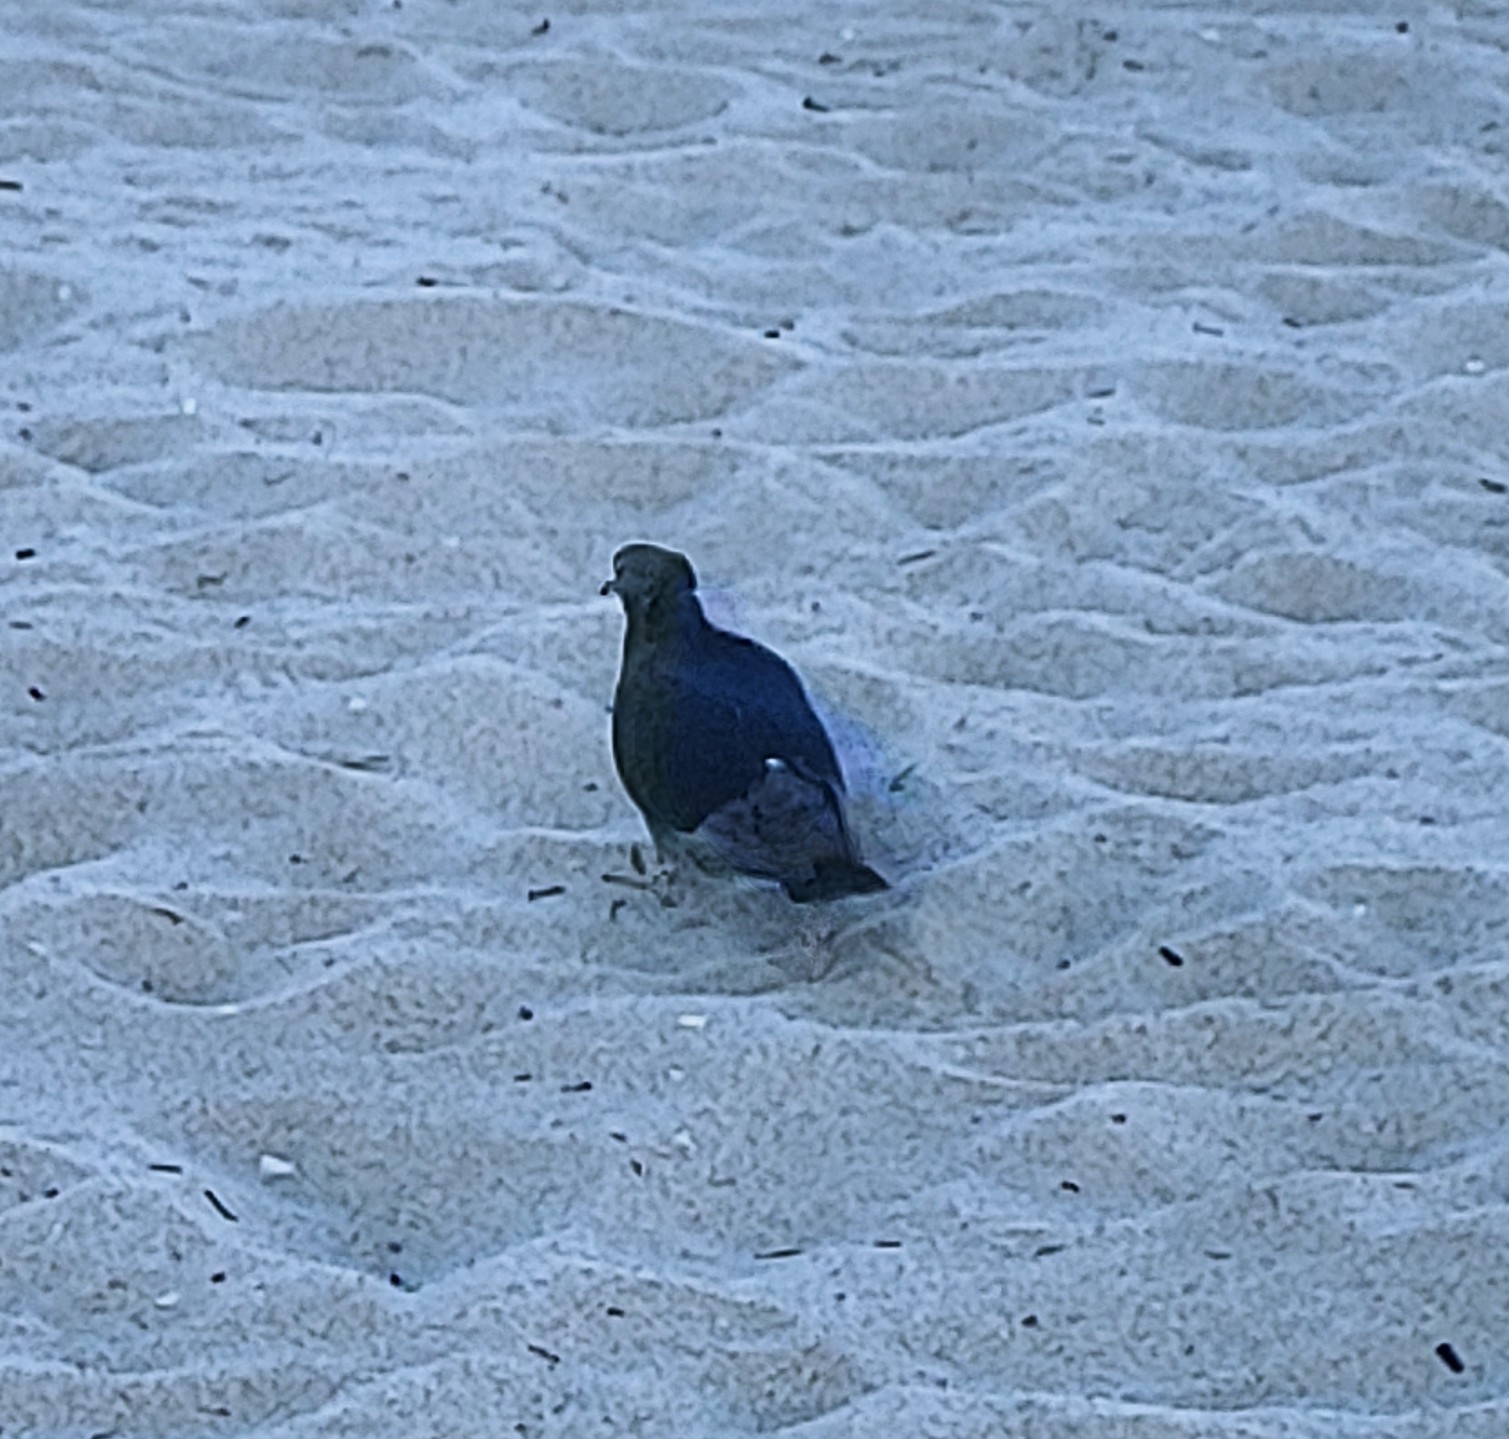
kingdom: Animalia
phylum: Chordata
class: Aves
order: Columbiformes
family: Columbidae
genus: Columba
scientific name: Columba livia
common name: Rock pigeon
